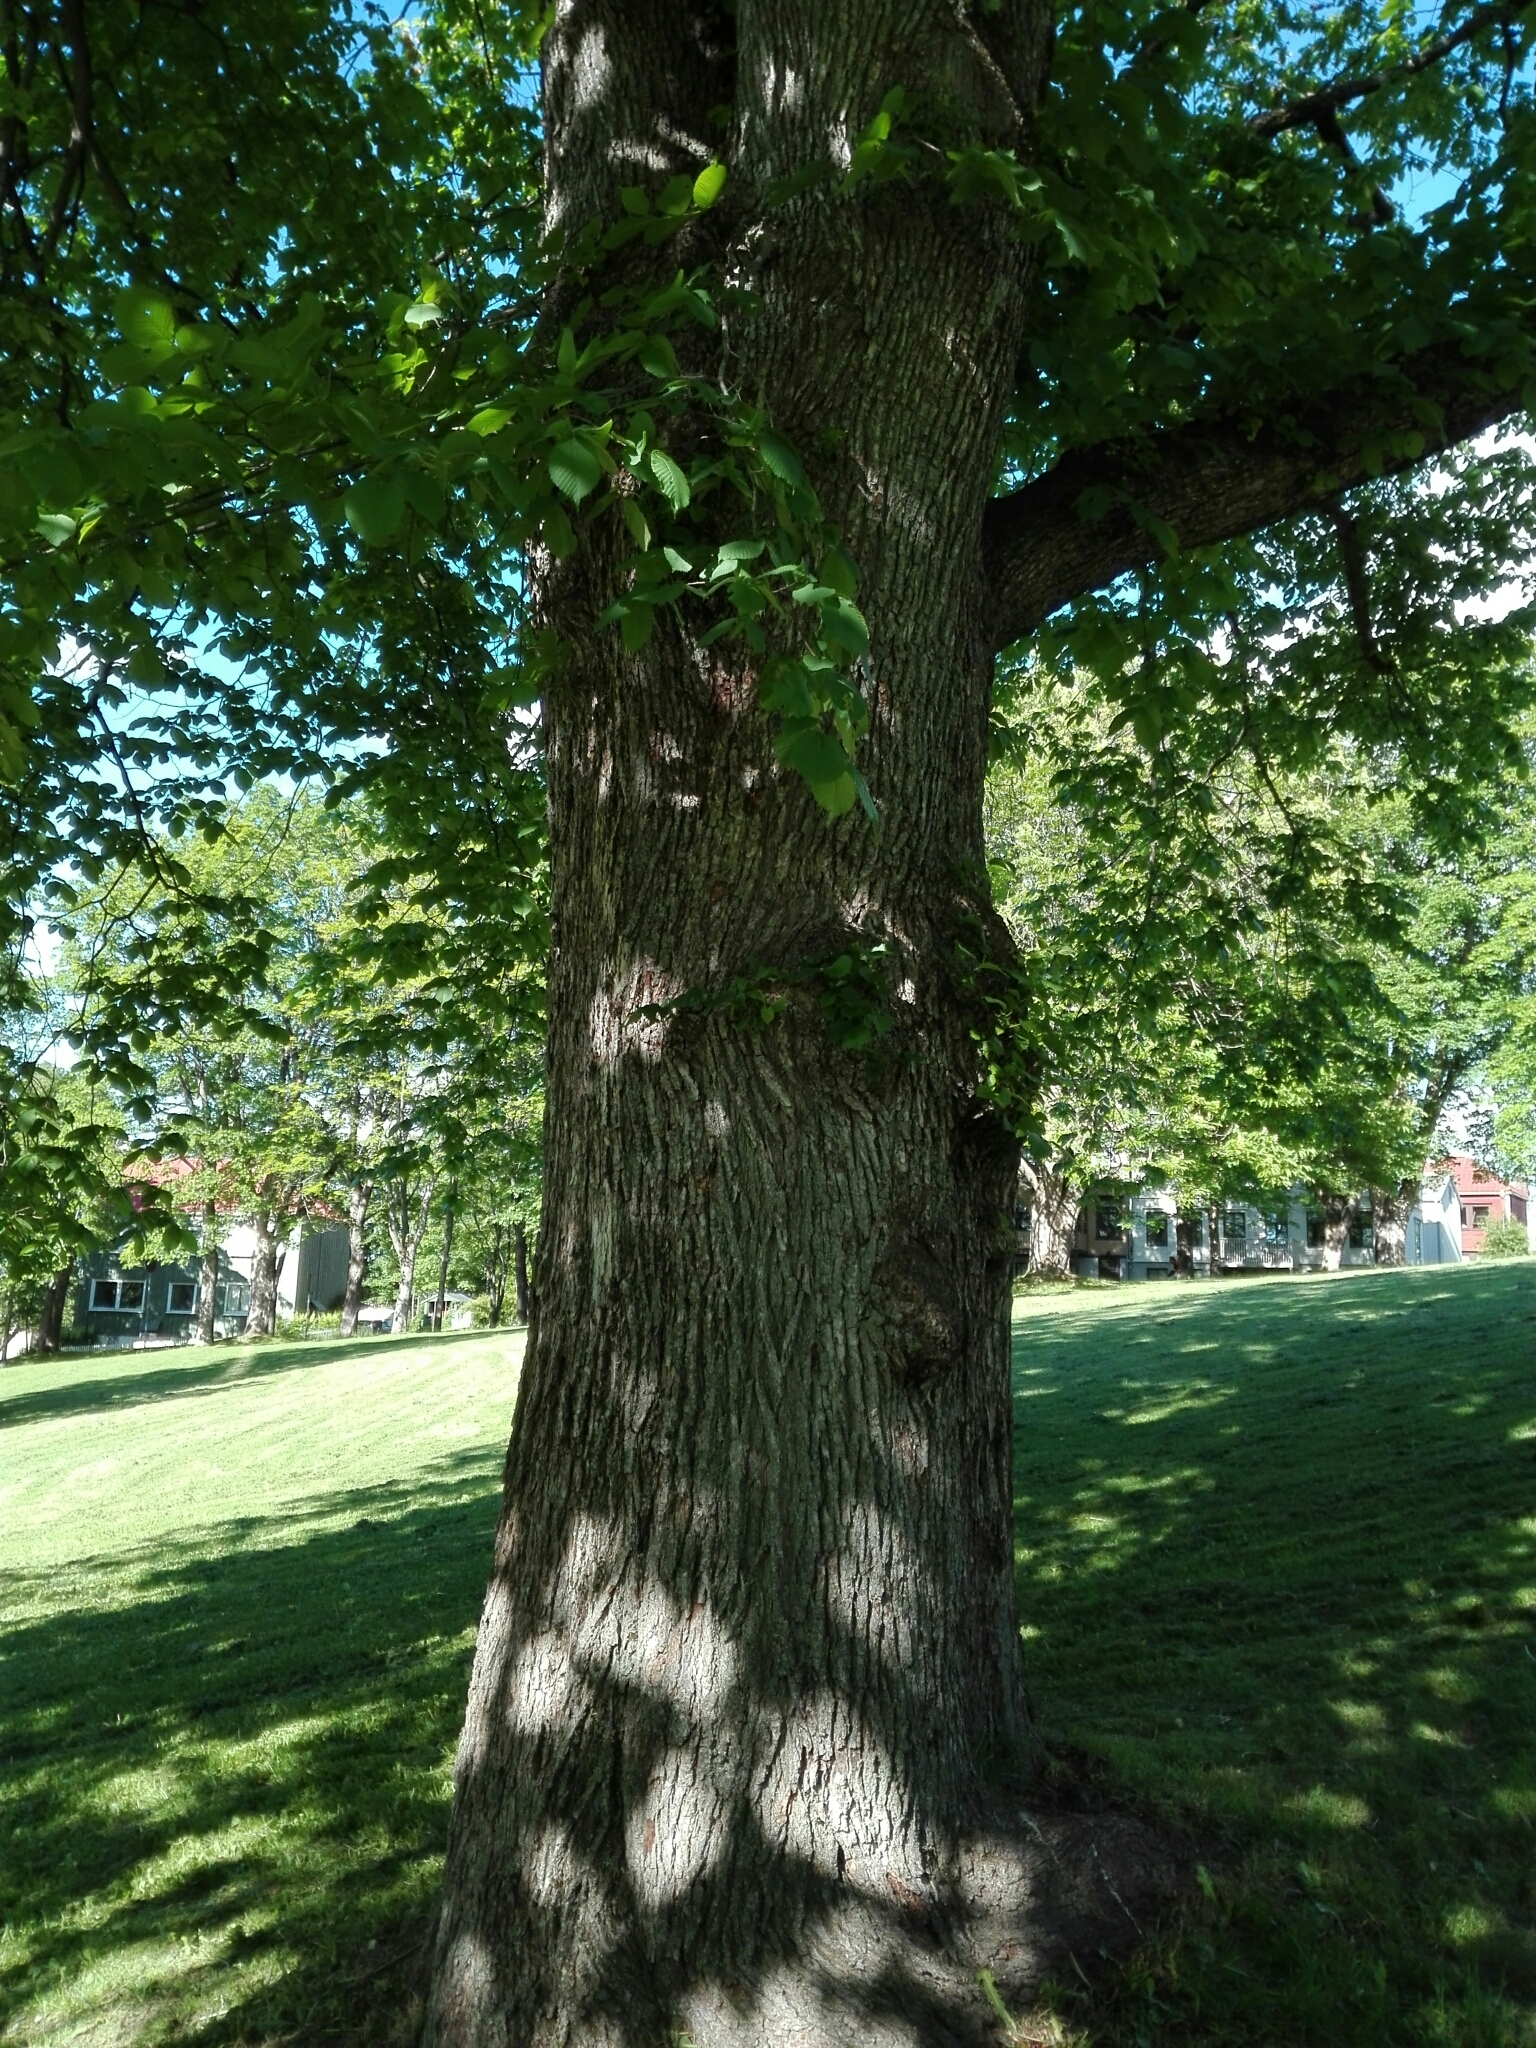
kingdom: Plantae
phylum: Tracheophyta
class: Magnoliopsida
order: Rosales
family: Ulmaceae
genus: Ulmus
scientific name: Ulmus glabra
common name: Wych elm
